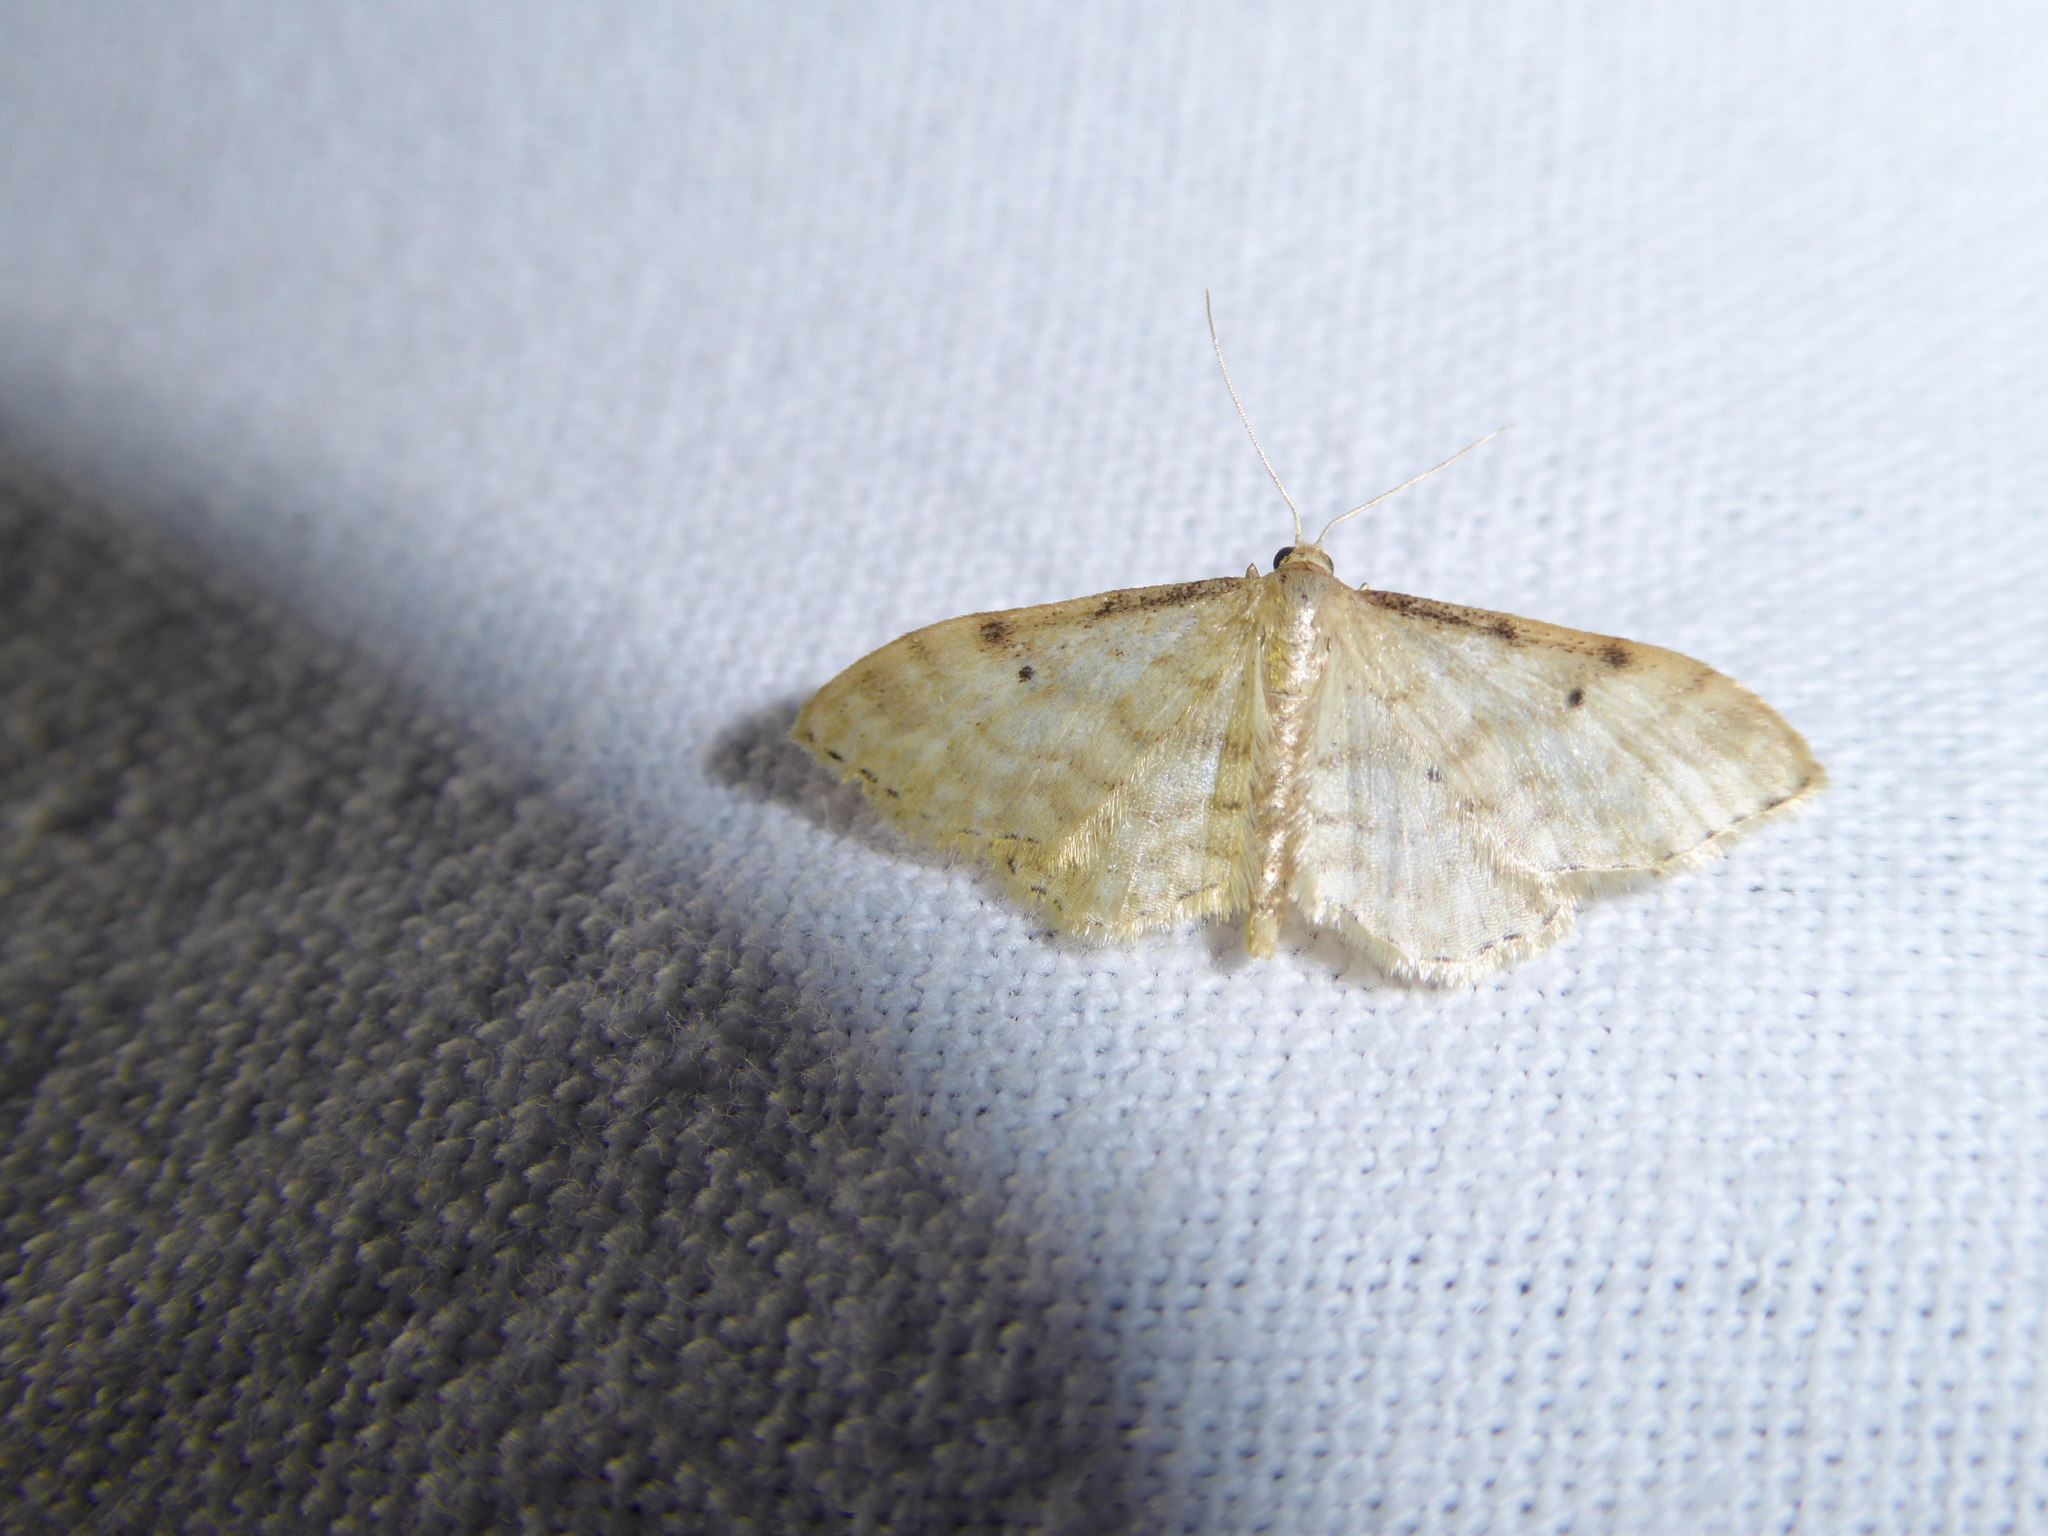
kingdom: Animalia
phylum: Arthropoda
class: Insecta
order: Lepidoptera
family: Geometridae
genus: Idaea
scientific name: Idaea fuscovenosa
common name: Dwarf cream wave
